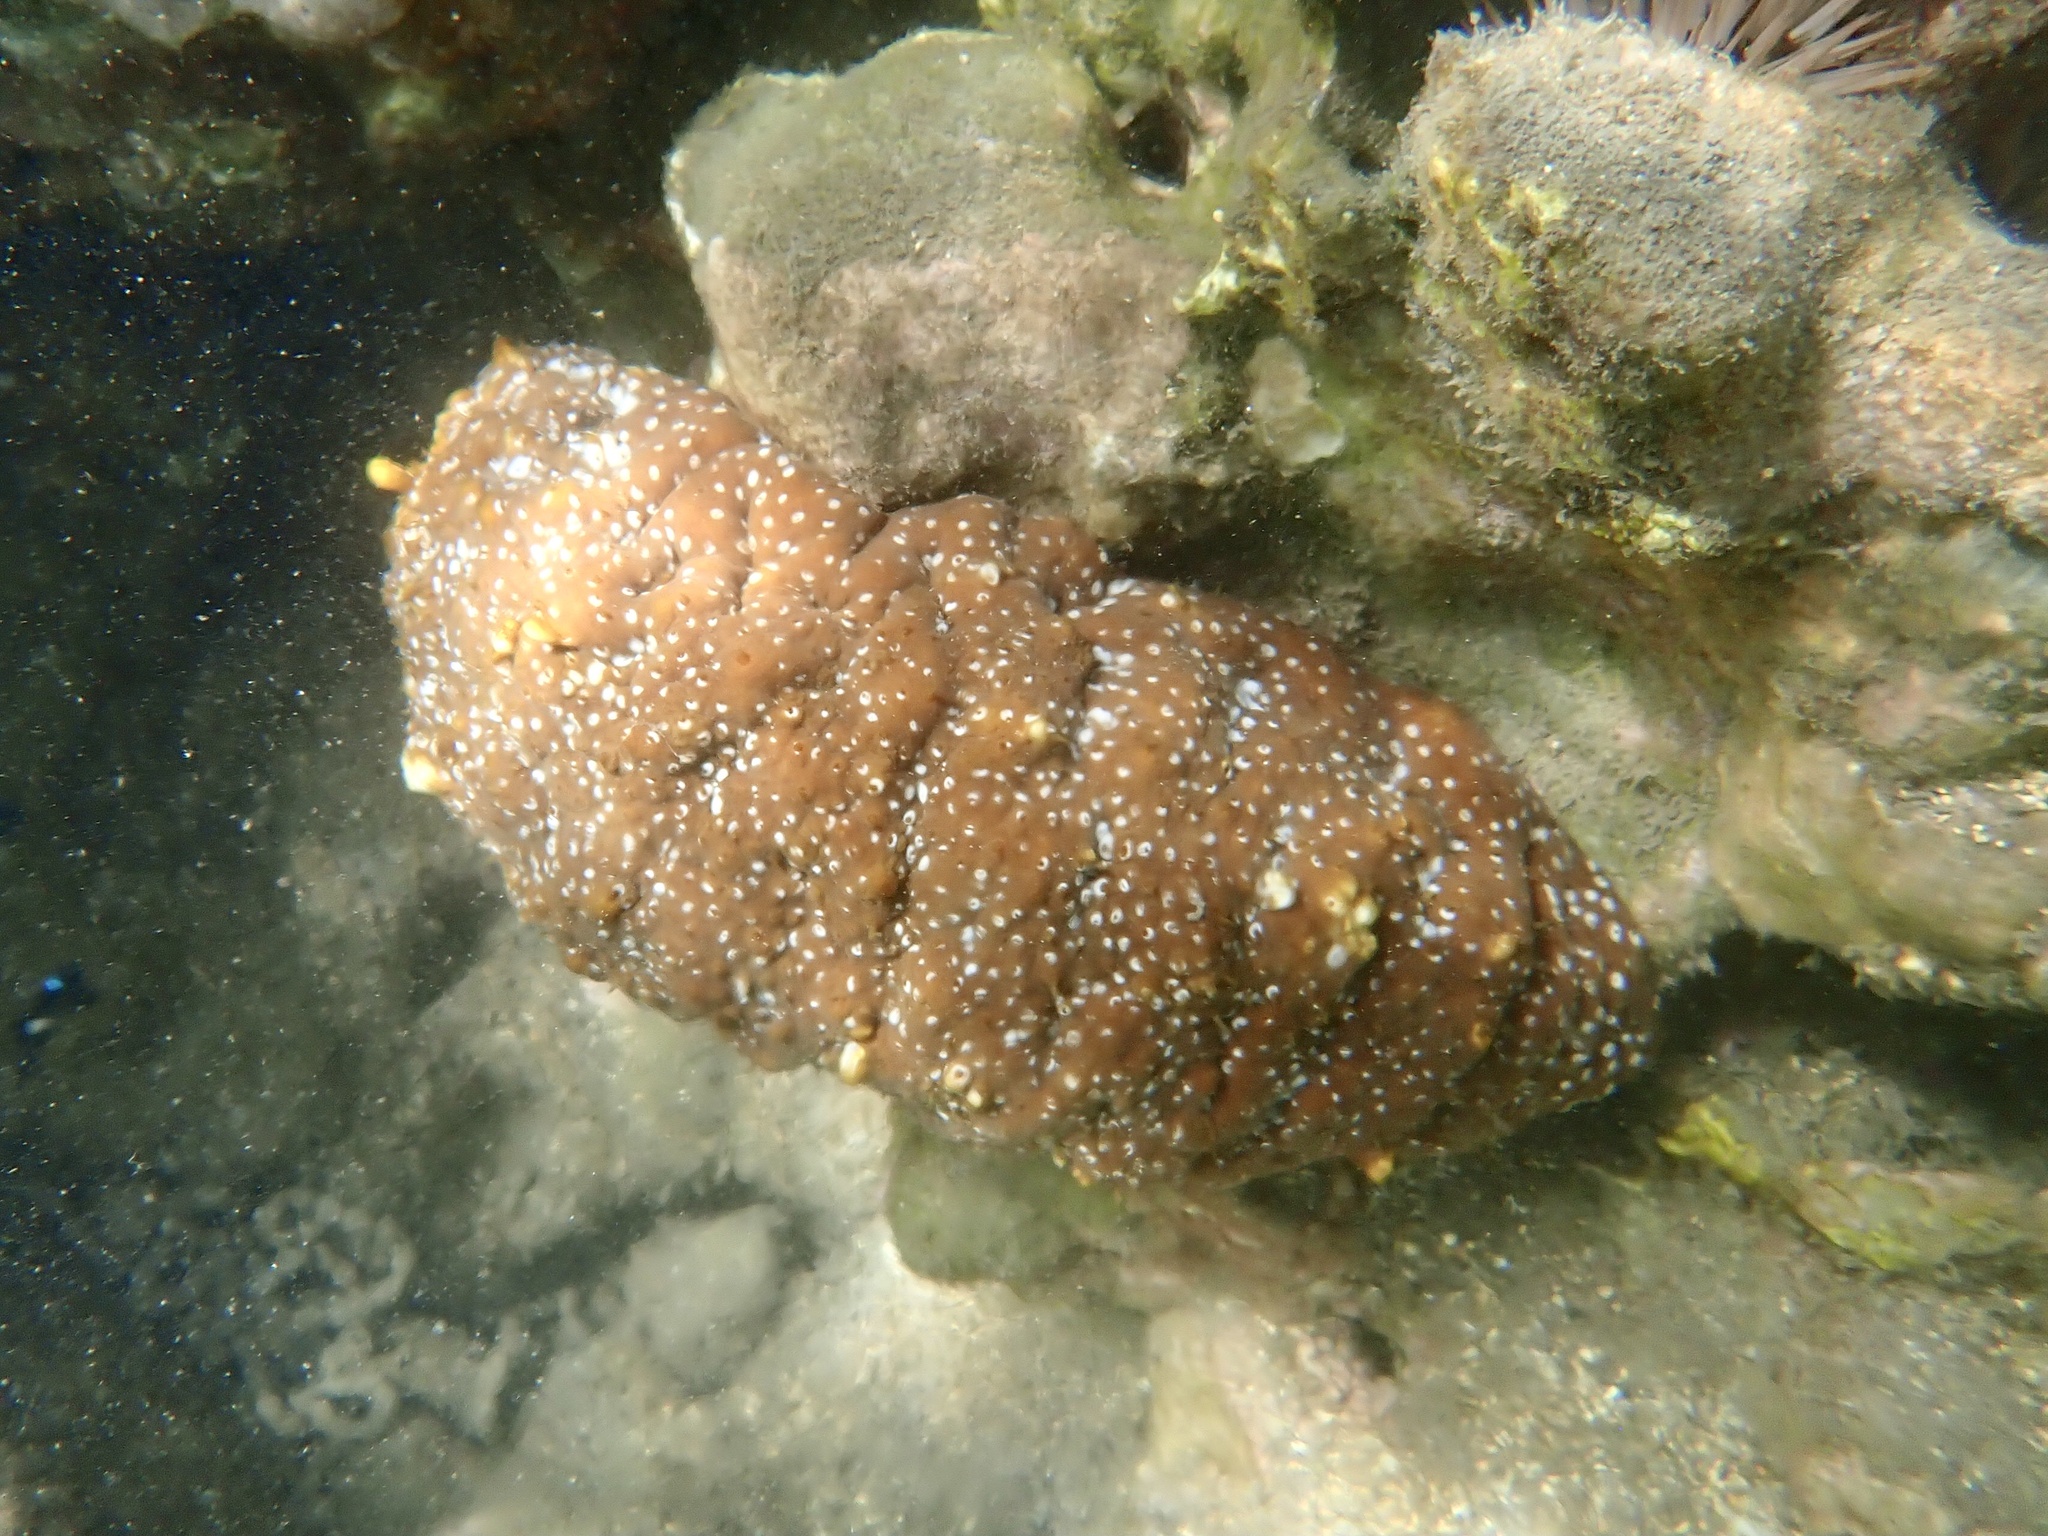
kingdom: Animalia
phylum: Echinodermata
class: Holothuroidea
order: Holothuriida
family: Holothuriidae
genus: Actinopyga
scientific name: Actinopyga varians
